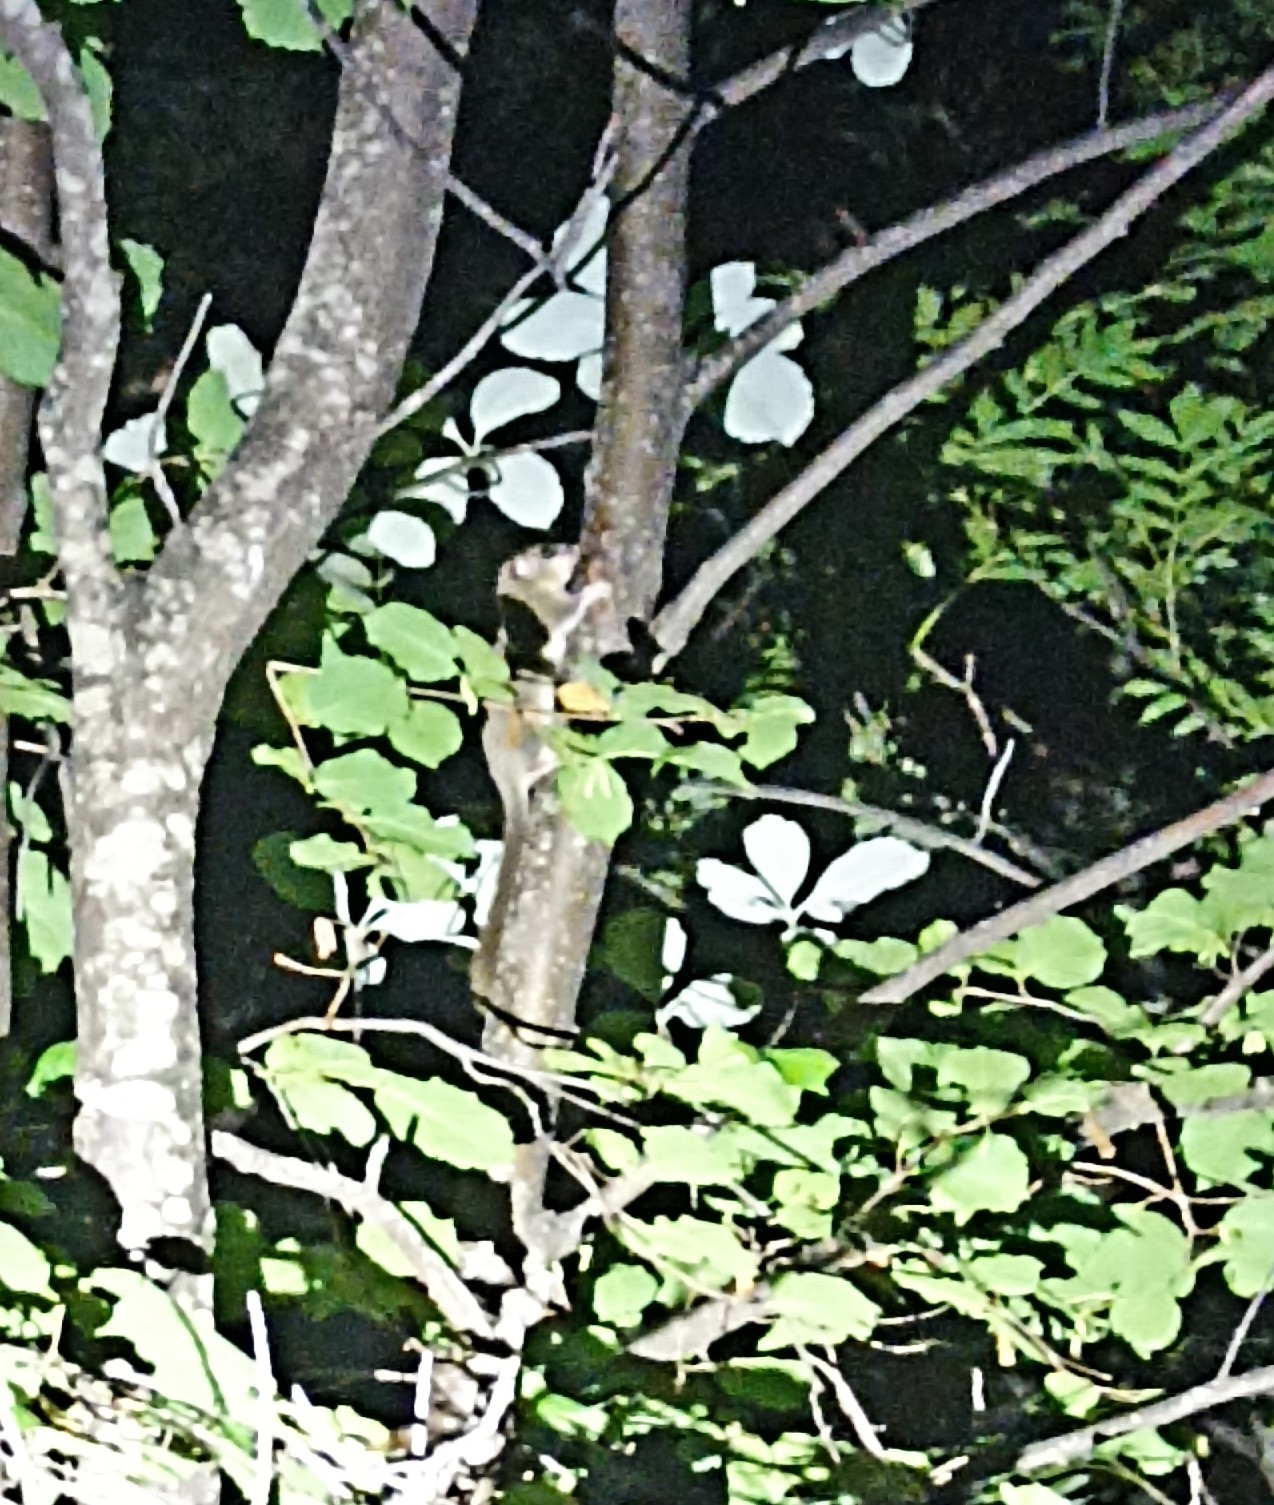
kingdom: Animalia
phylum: Chordata
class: Mammalia
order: Rodentia
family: Gliridae
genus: Glis
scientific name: Glis glis
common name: Fat dormouse
